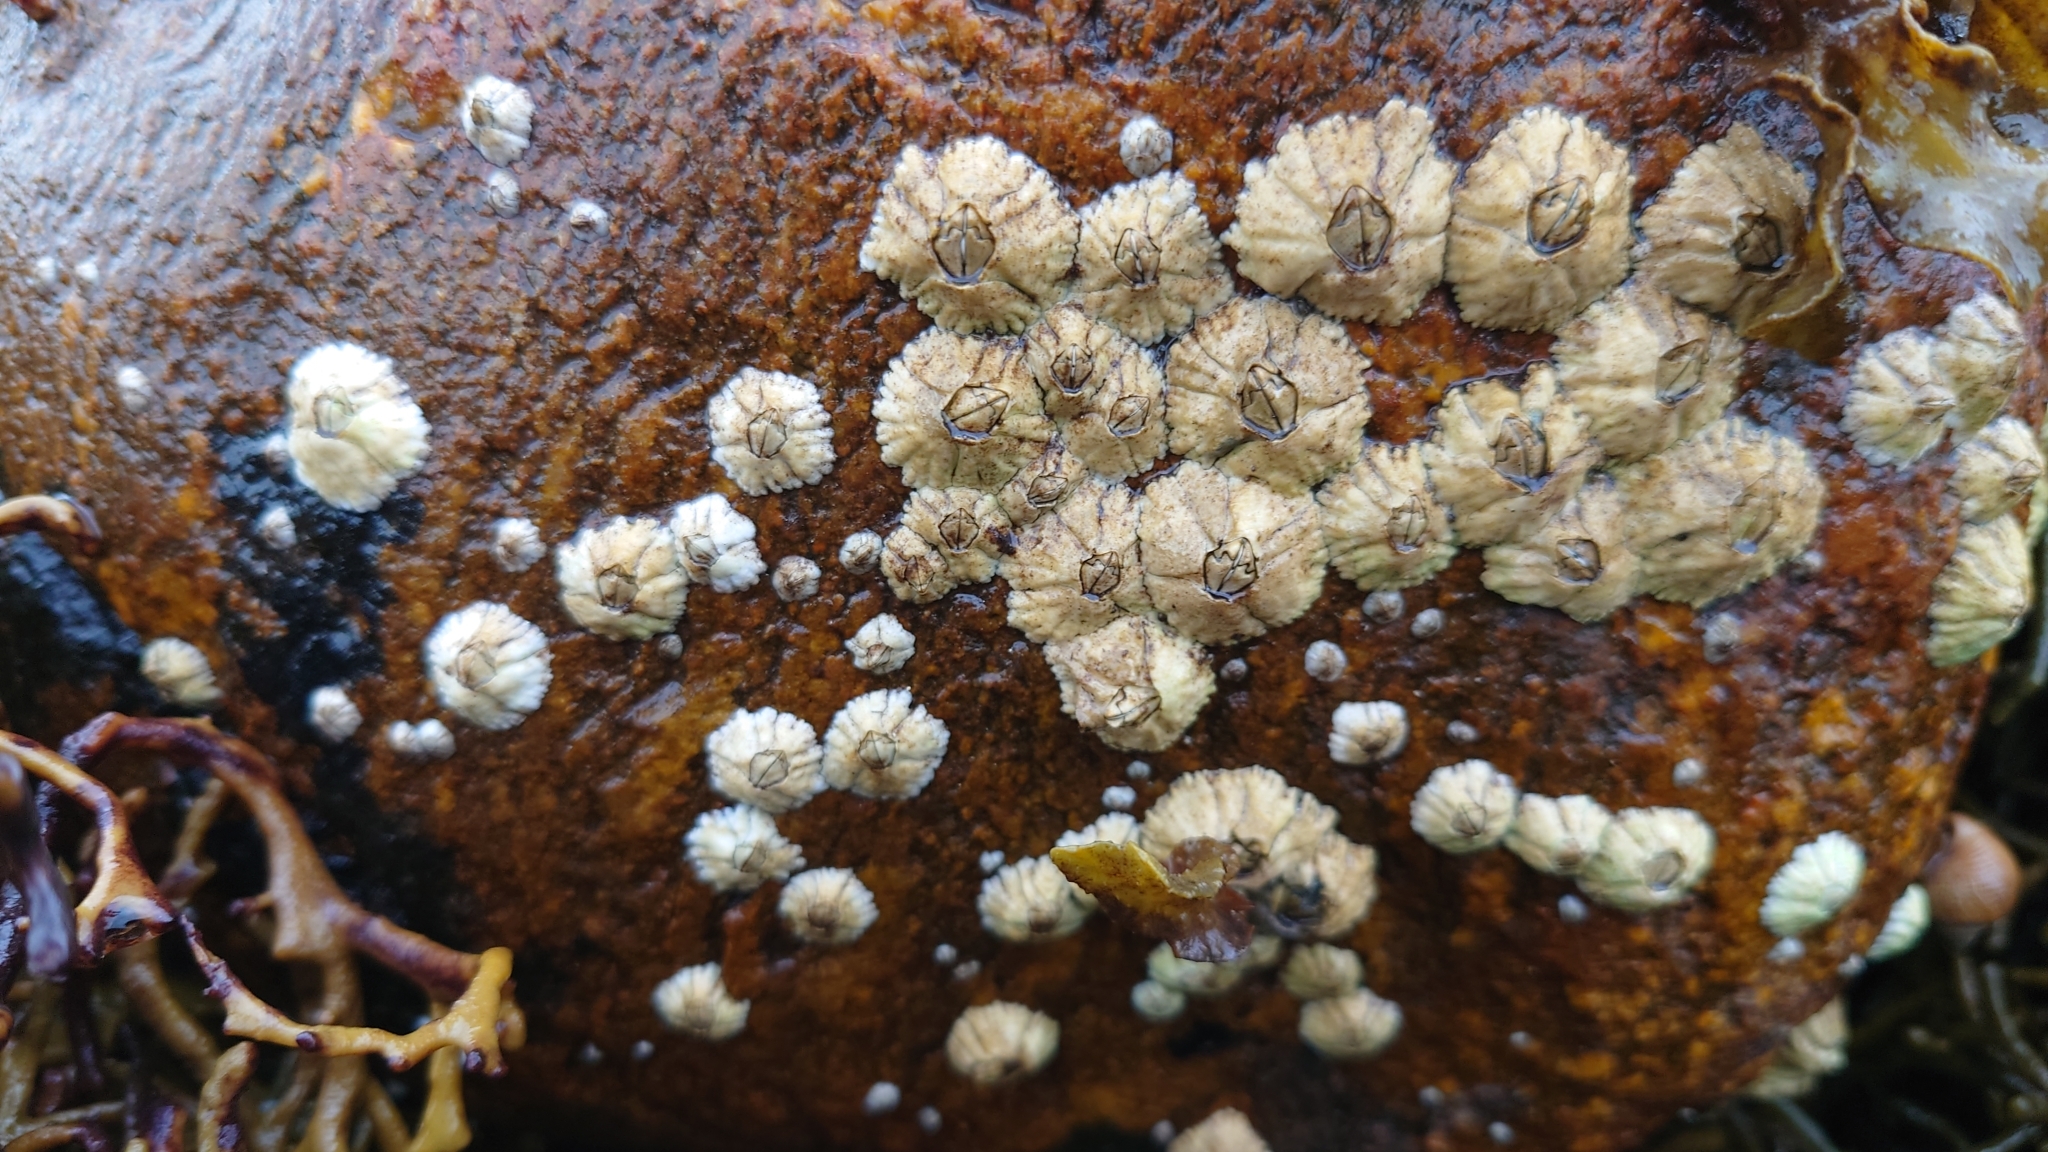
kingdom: Animalia
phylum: Arthropoda
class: Maxillopoda
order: Sessilia
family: Archaeobalanidae
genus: Semibalanus
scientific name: Semibalanus balanoides
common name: Acorn barnacle
